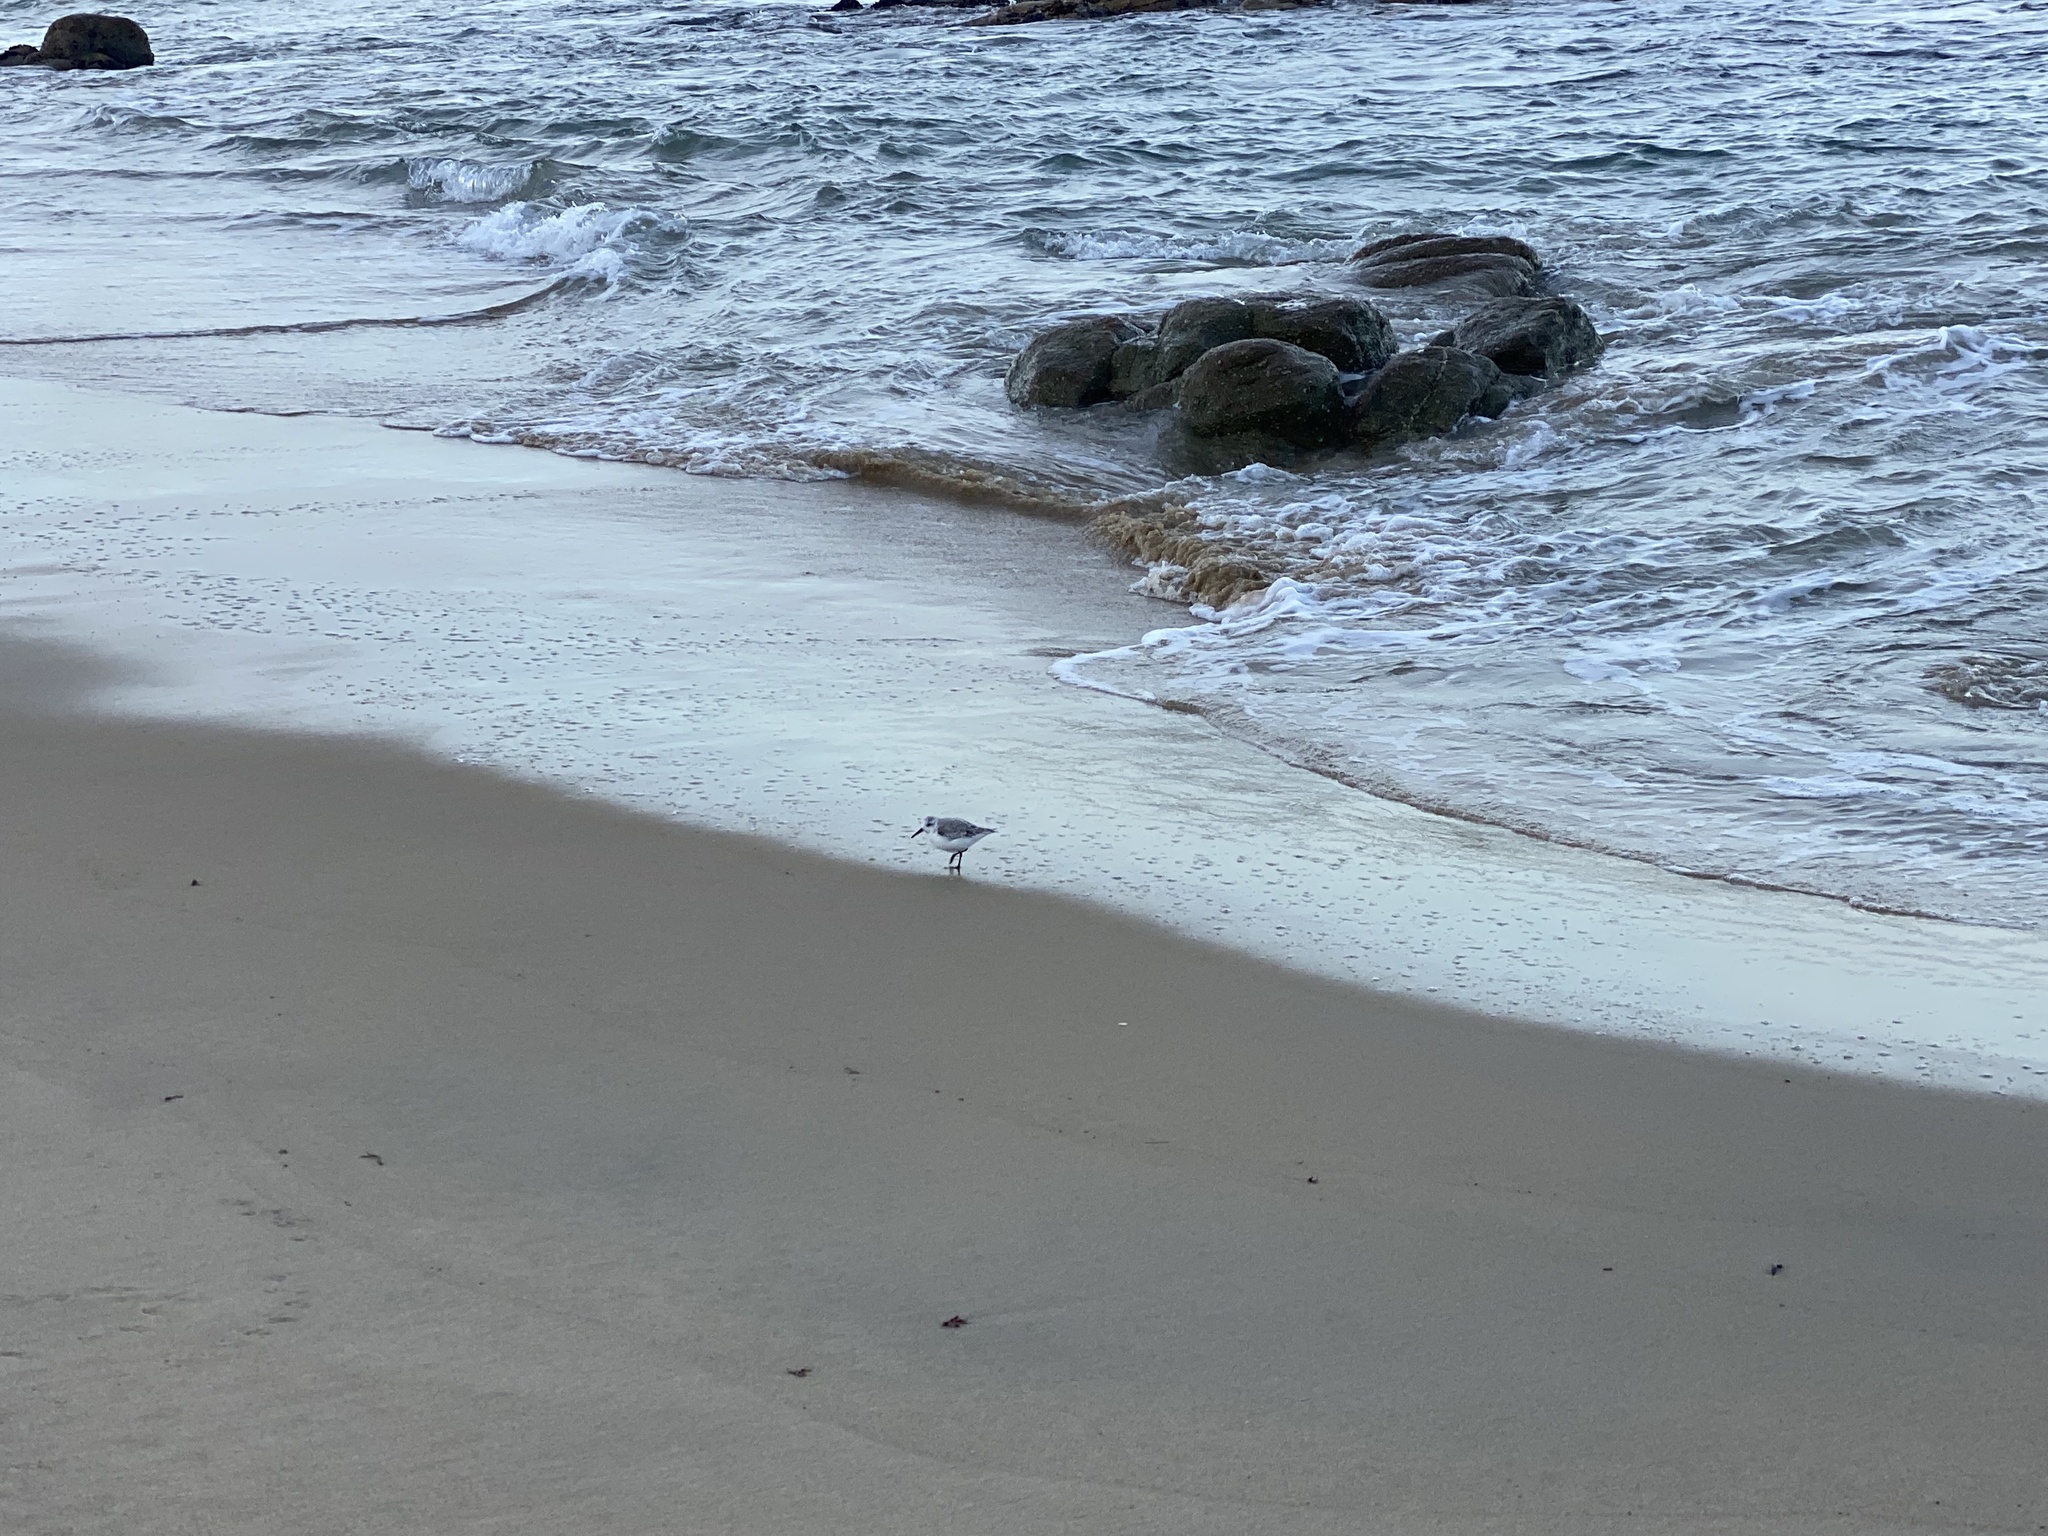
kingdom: Animalia
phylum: Chordata
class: Aves
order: Charadriiformes
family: Scolopacidae
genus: Calidris
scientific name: Calidris alba
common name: Sanderling
